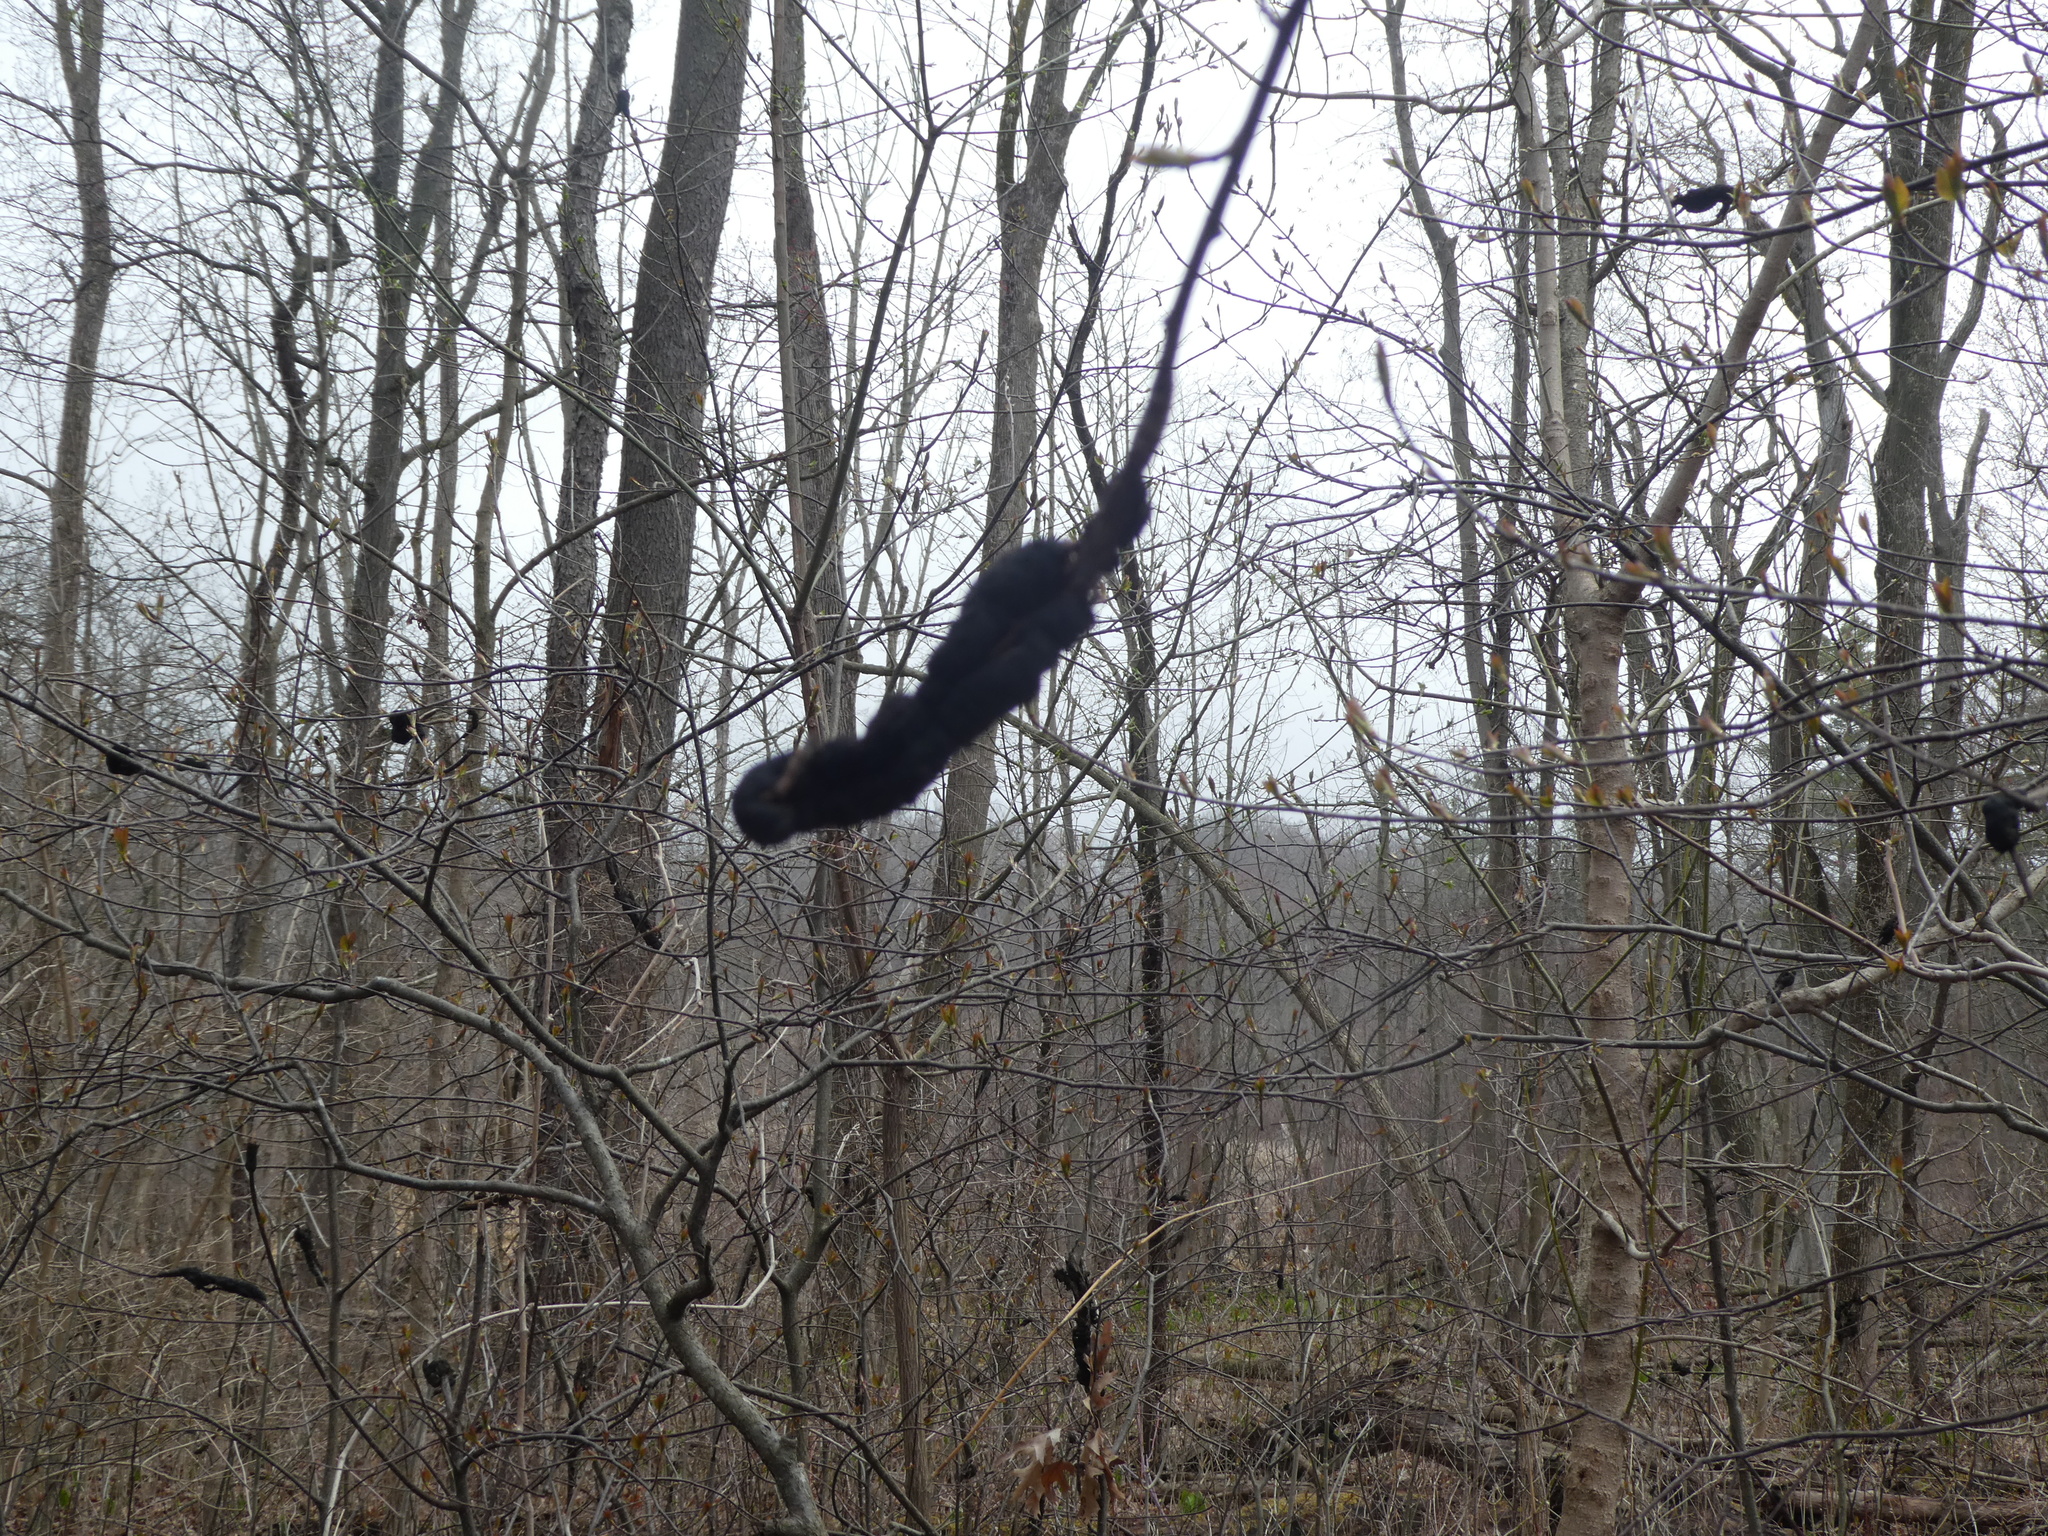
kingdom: Fungi
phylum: Ascomycota
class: Dothideomycetes
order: Venturiales
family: Venturiaceae
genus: Apiosporina
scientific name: Apiosporina morbosa
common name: Black knot
